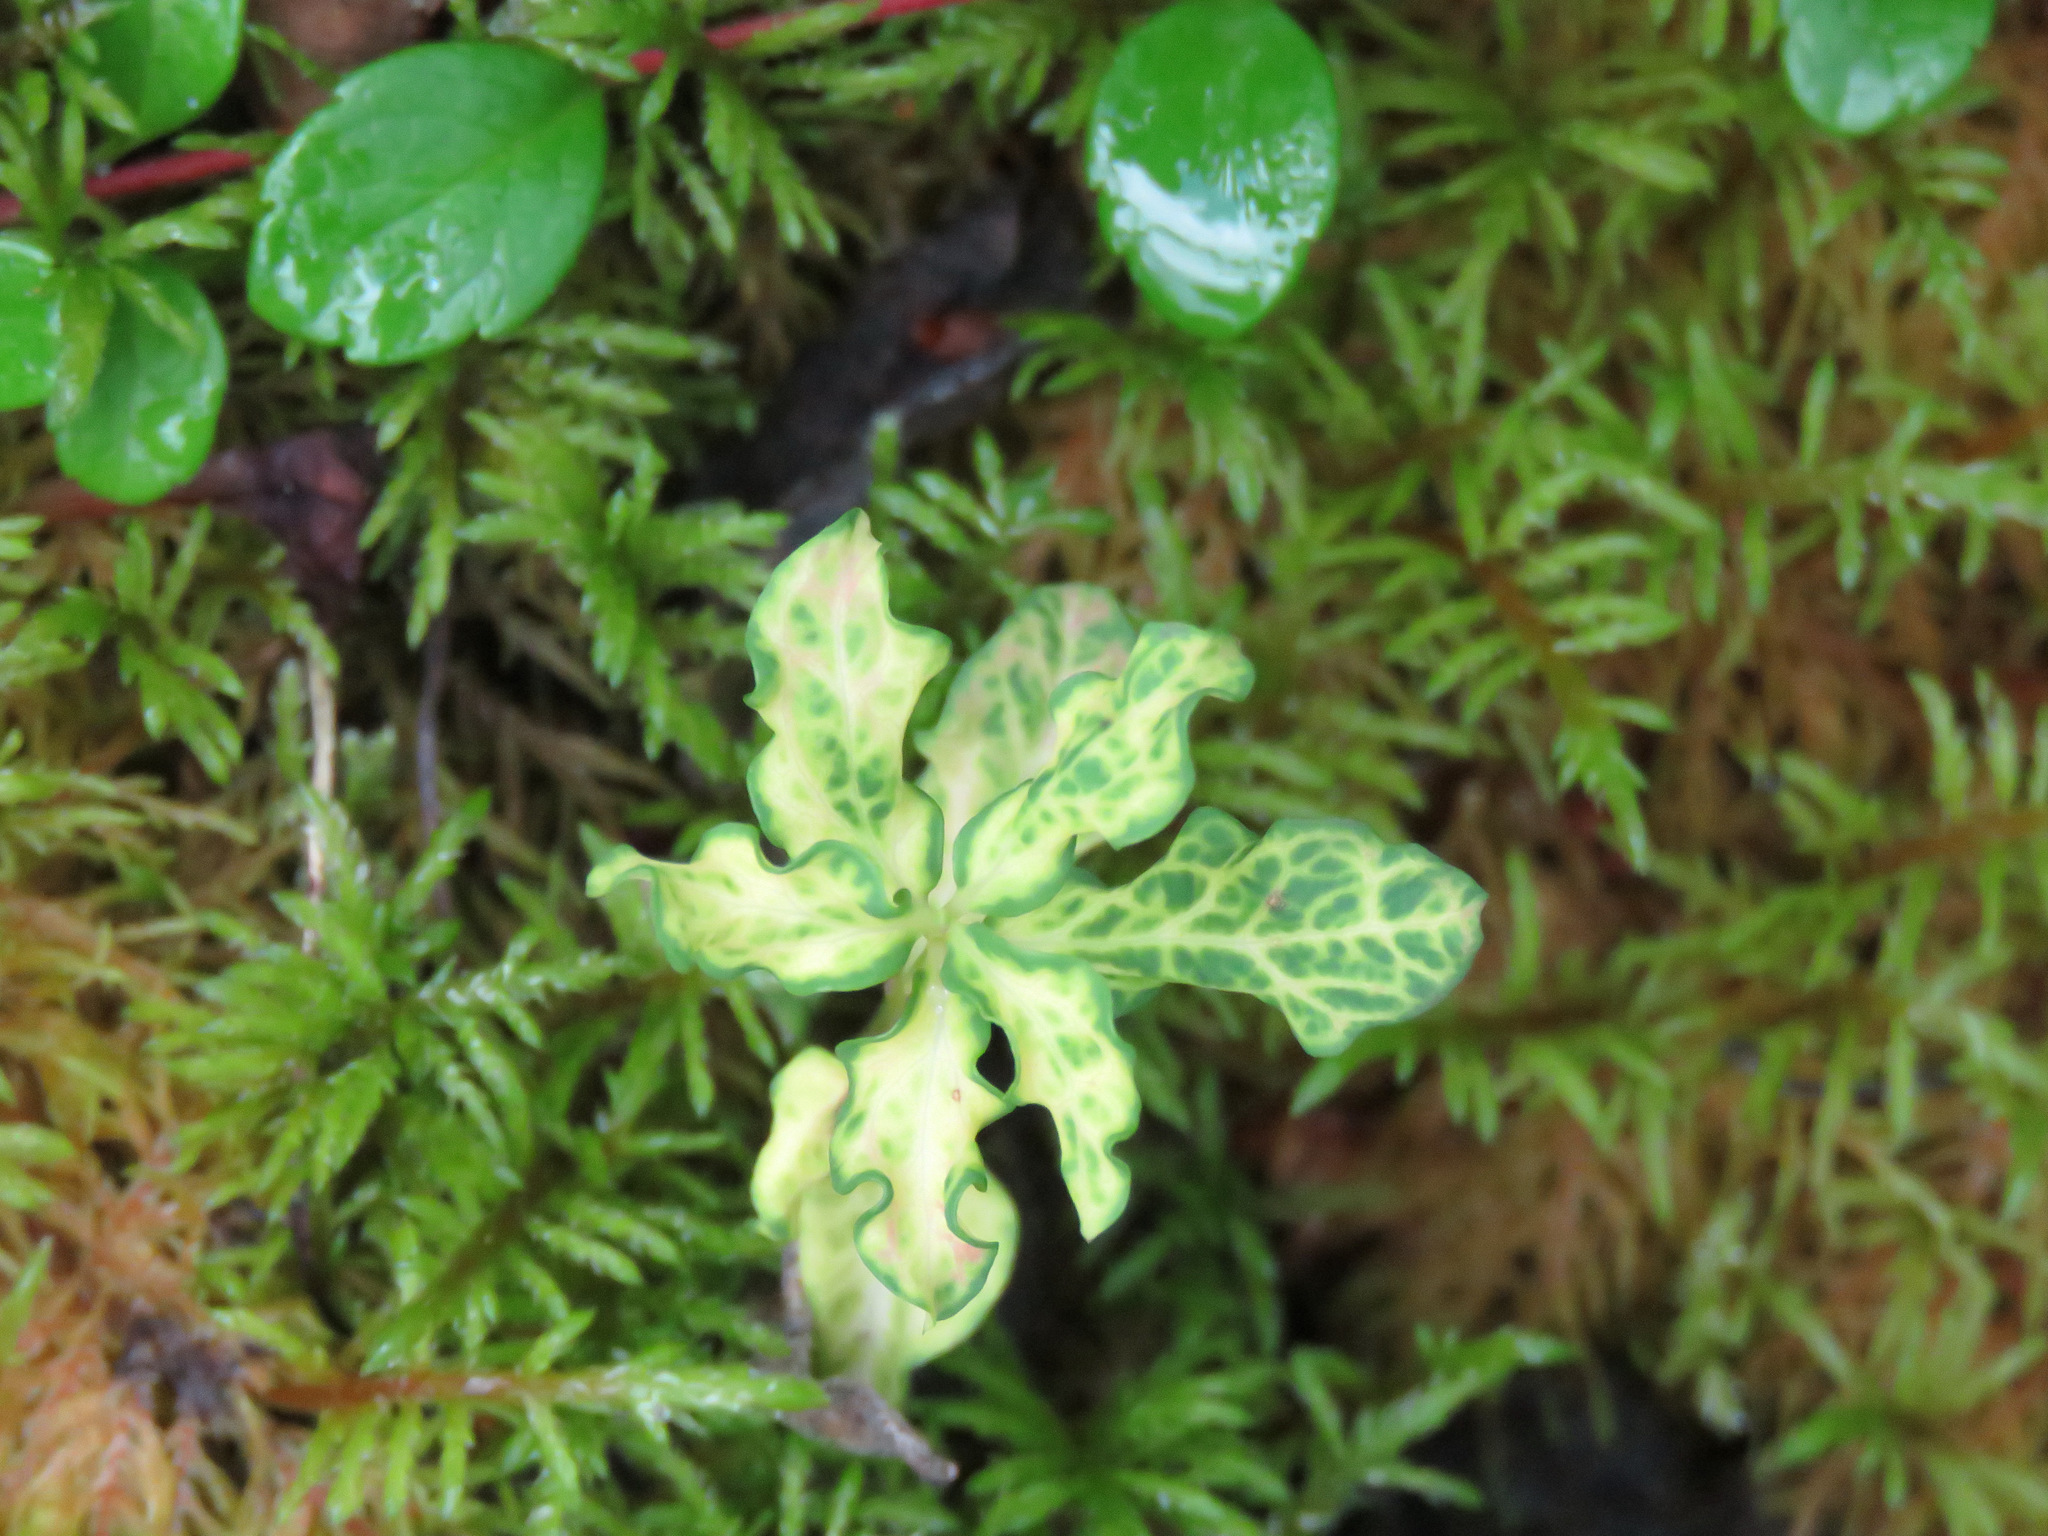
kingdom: Plantae
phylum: Tracheophyta
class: Magnoliopsida
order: Santalales
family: Comandraceae
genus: Geocaulon
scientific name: Geocaulon lividum
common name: Earthberry
